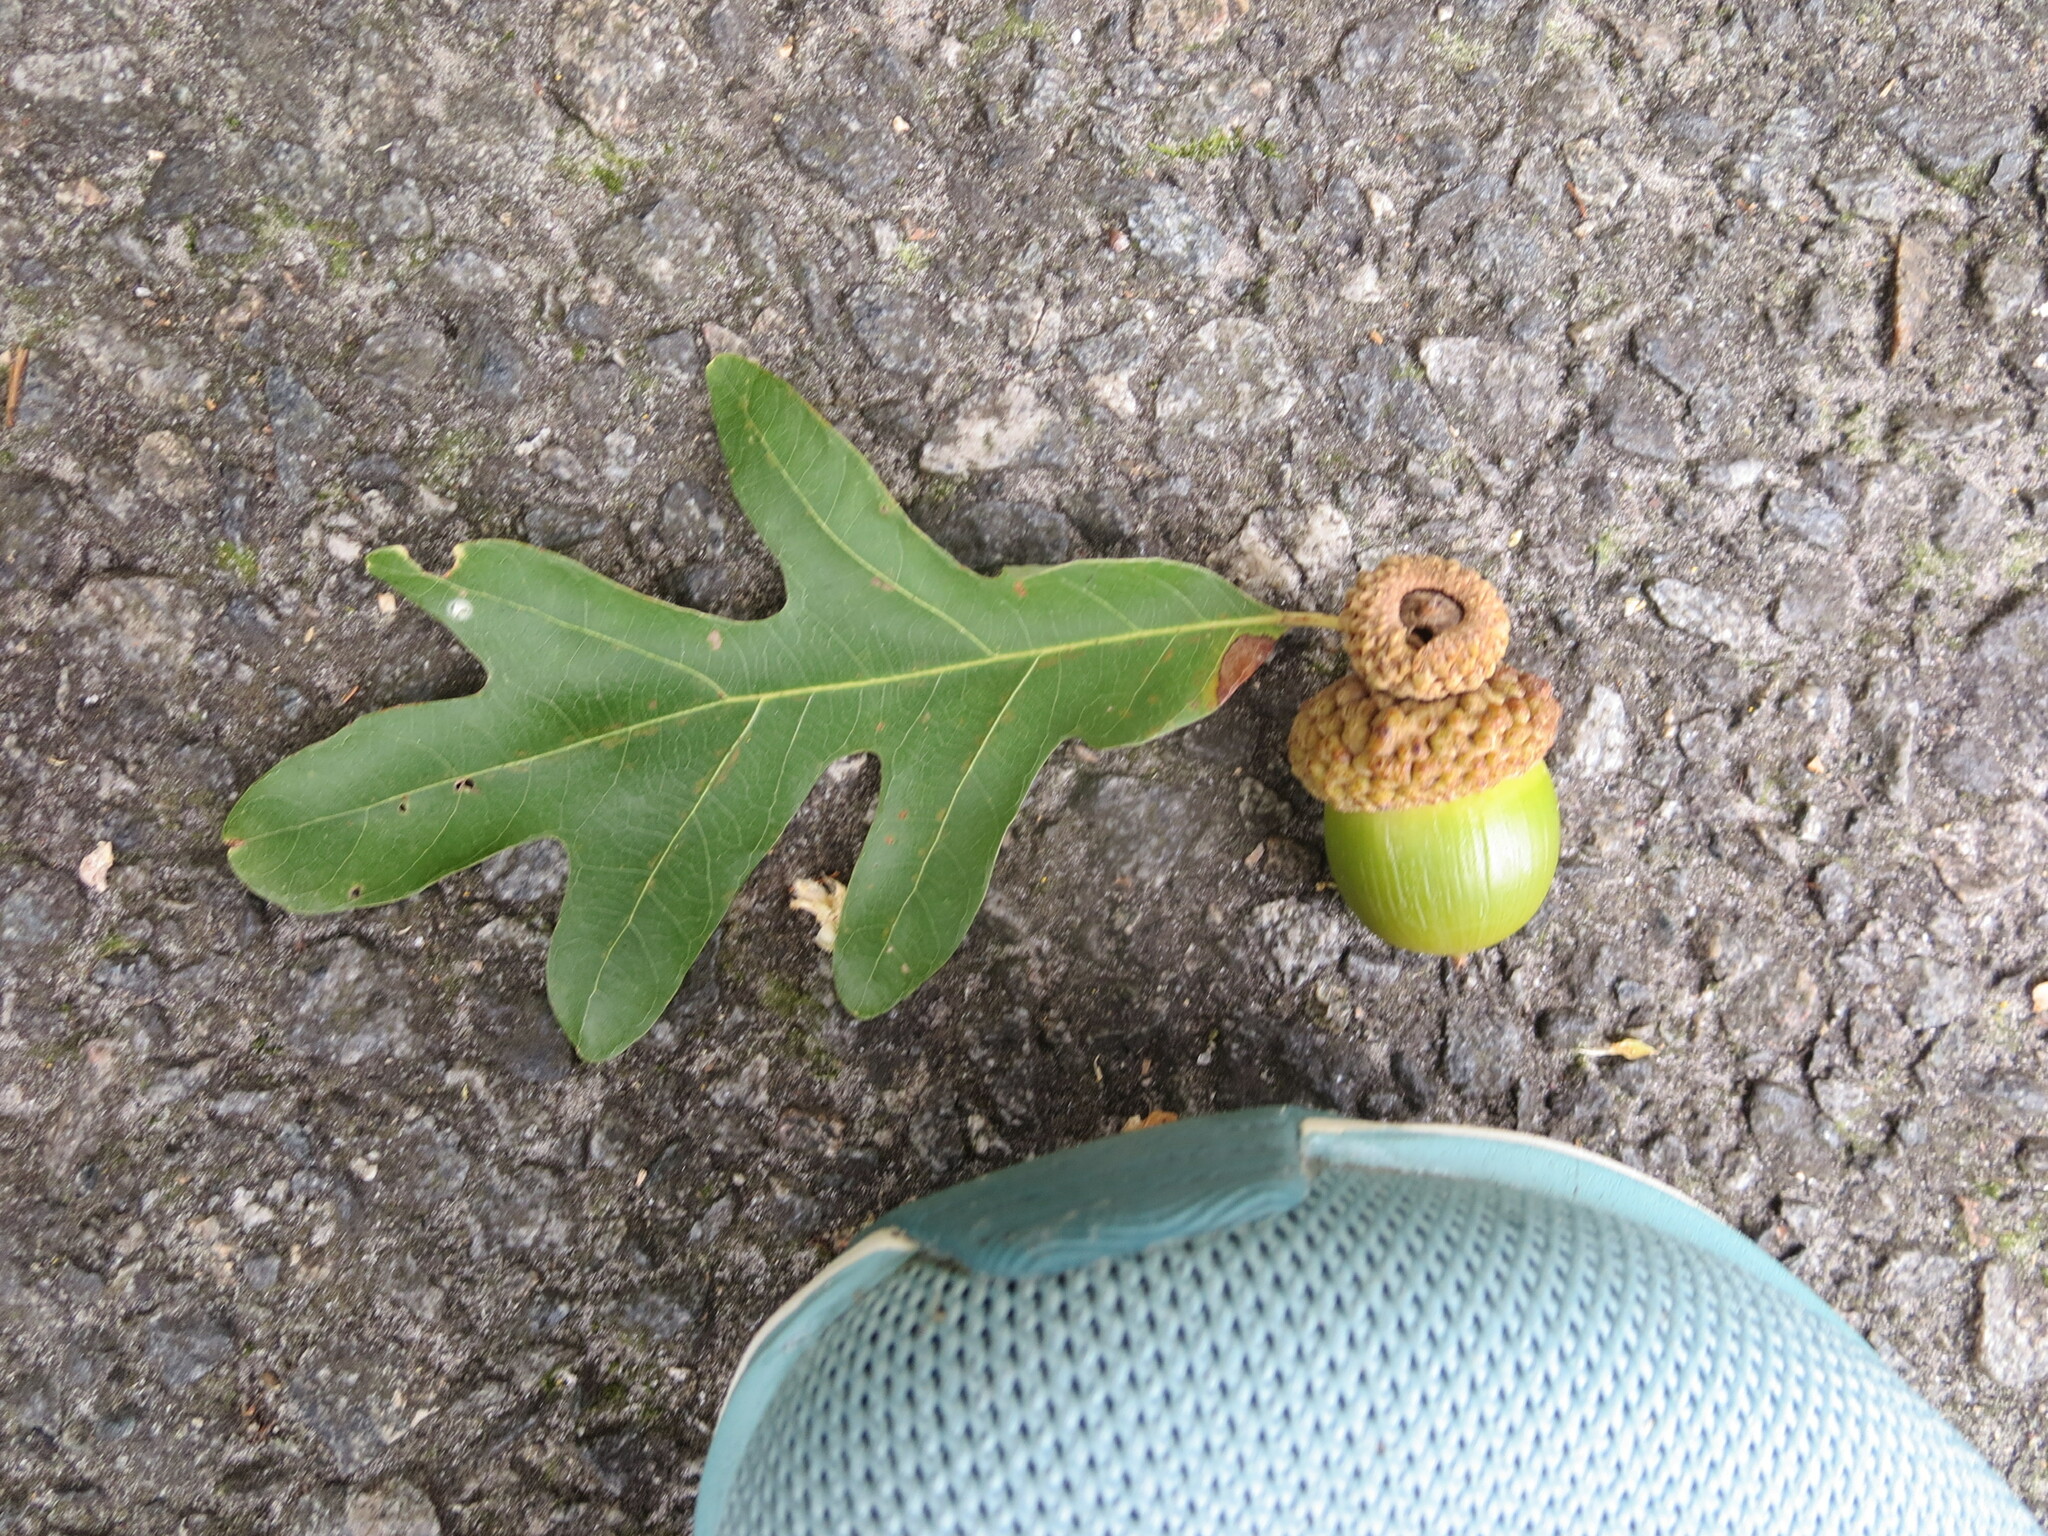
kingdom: Plantae
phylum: Tracheophyta
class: Magnoliopsida
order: Fagales
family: Fagaceae
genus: Quercus
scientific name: Quercus alba
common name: White oak
